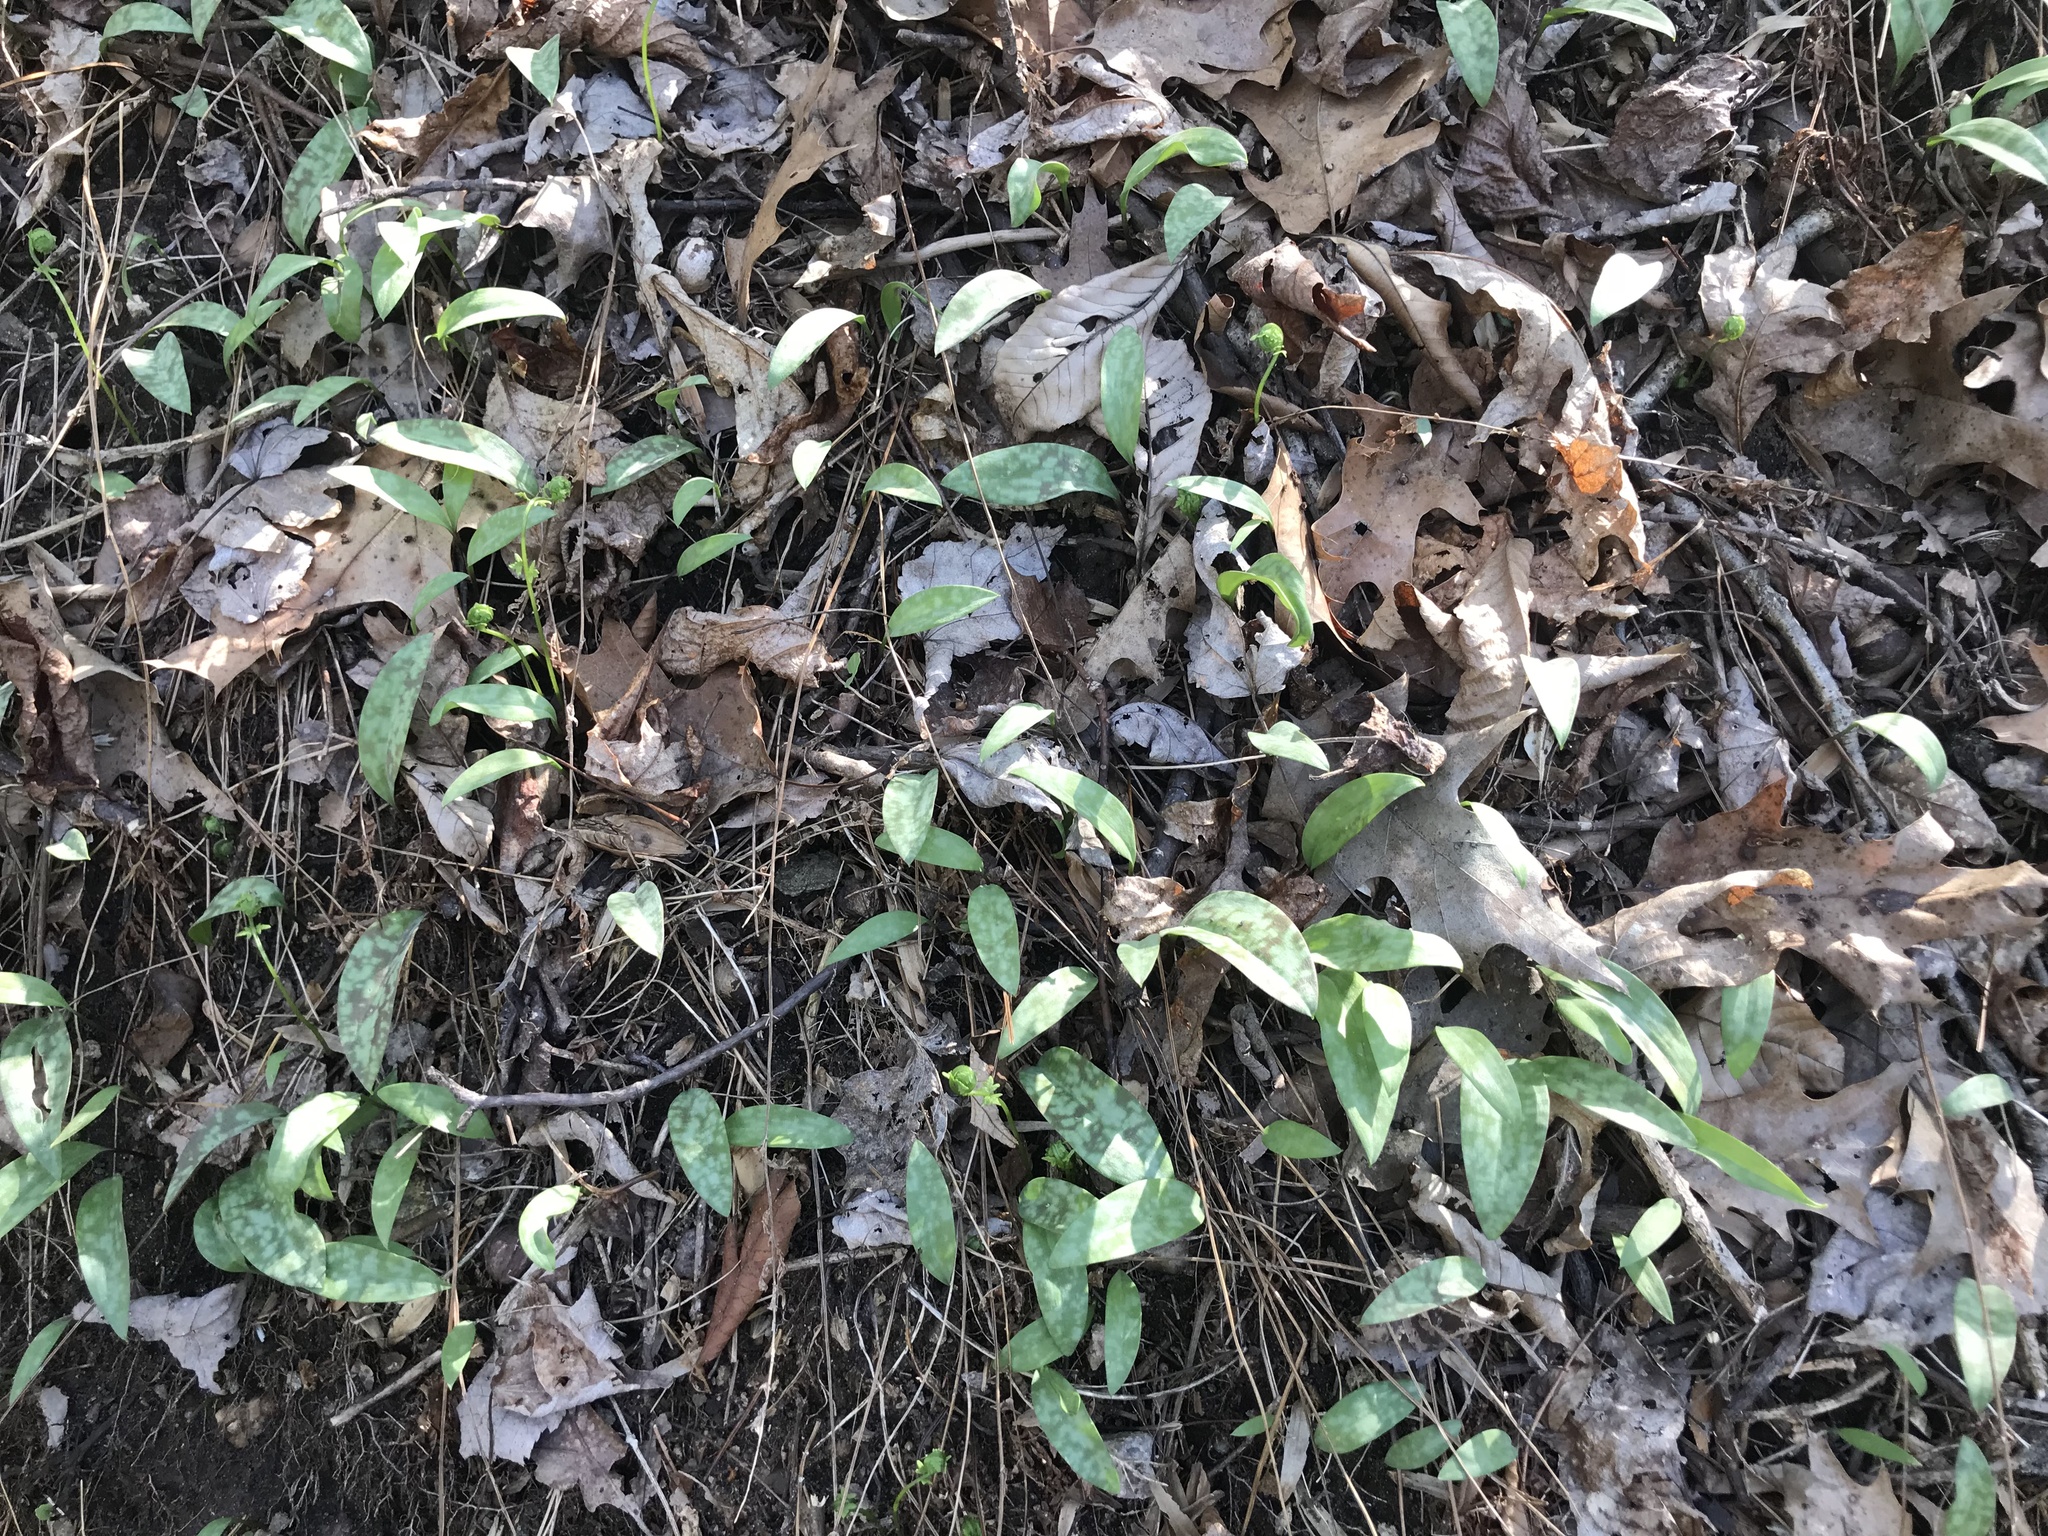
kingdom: Plantae
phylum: Tracheophyta
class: Liliopsida
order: Liliales
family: Liliaceae
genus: Erythronium
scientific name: Erythronium americanum
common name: Yellow adder's-tongue
